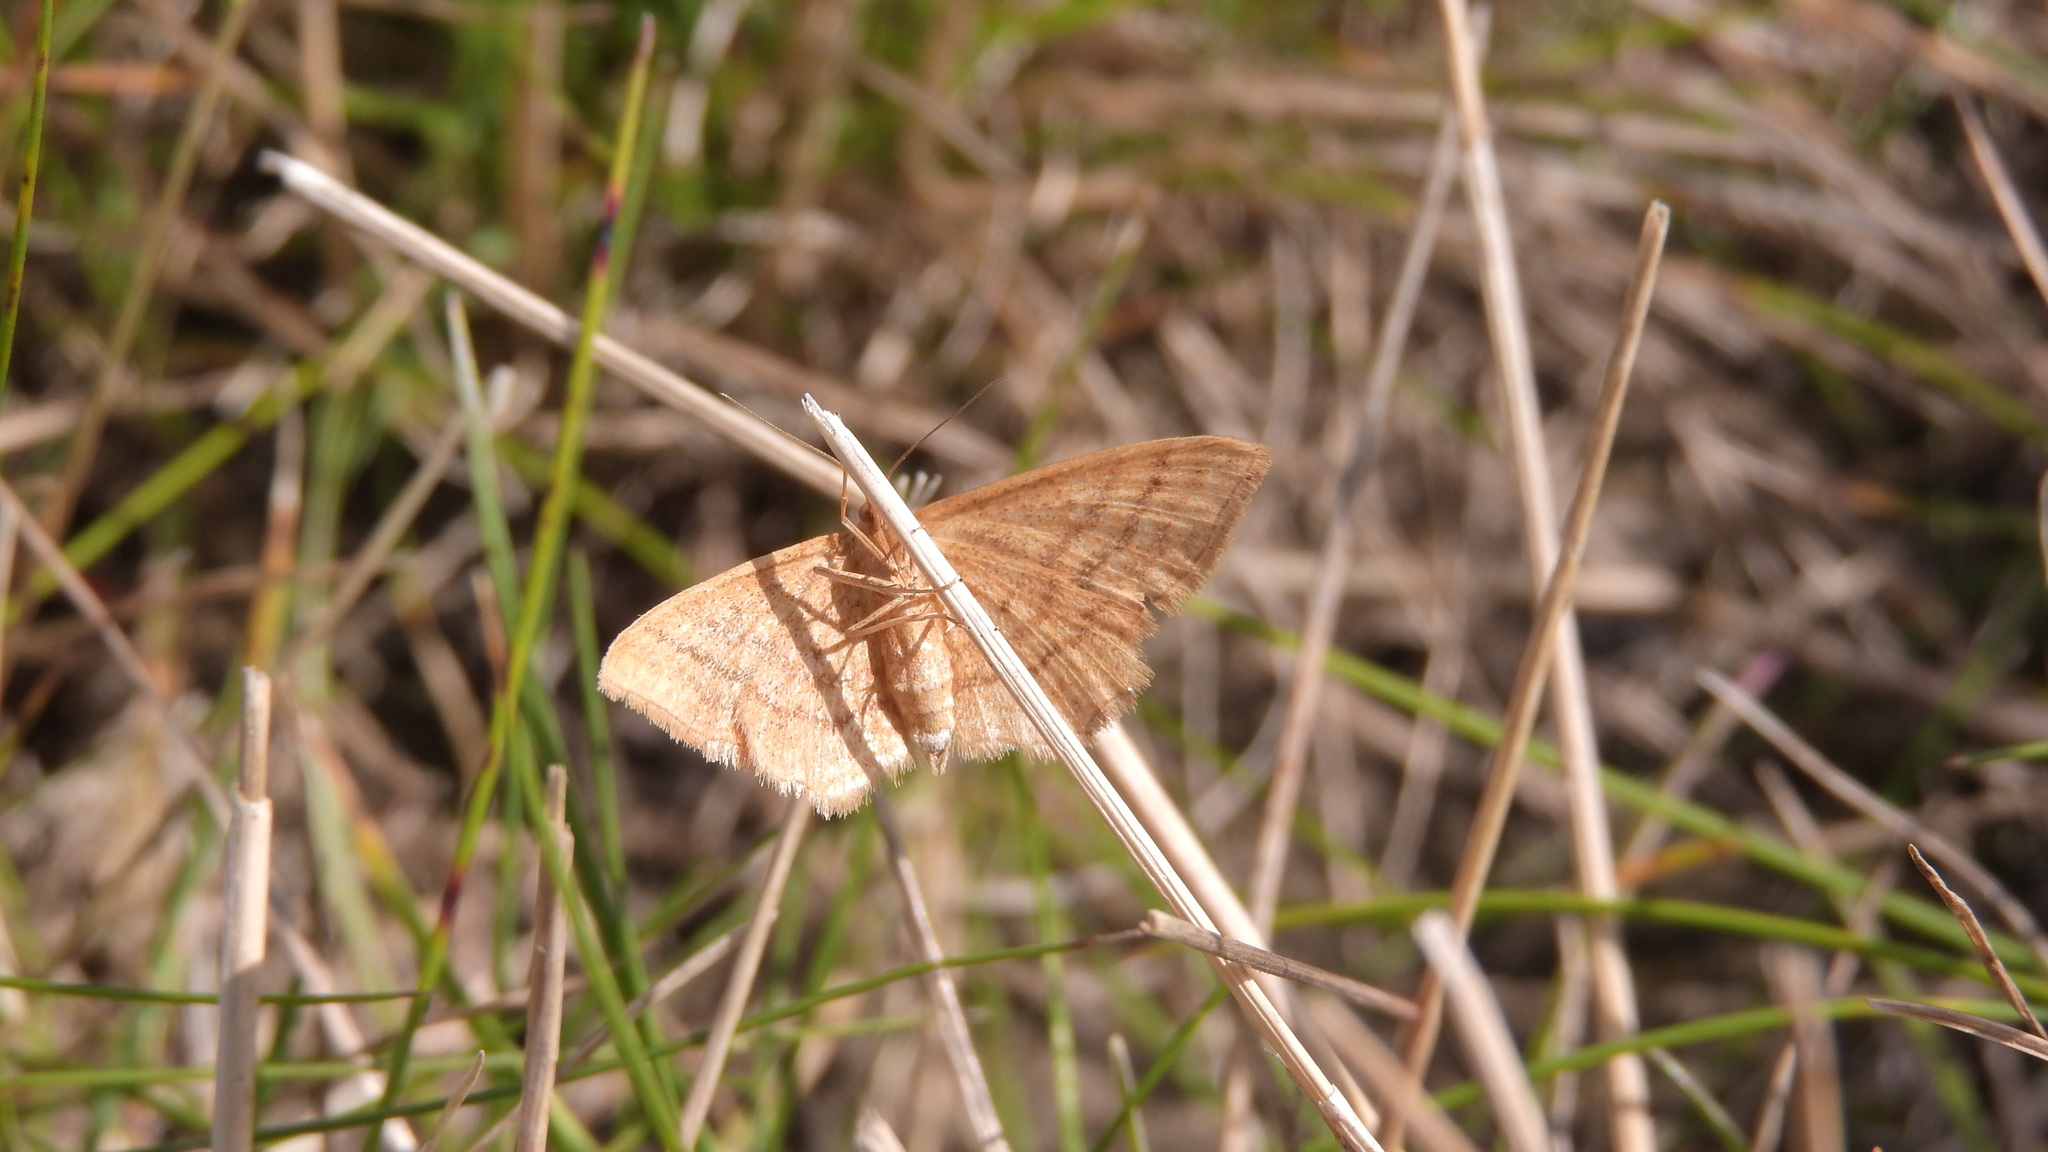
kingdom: Animalia
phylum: Arthropoda
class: Insecta
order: Lepidoptera
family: Geometridae
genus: Idaea
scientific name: Idaea ochrata
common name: Bright wave
